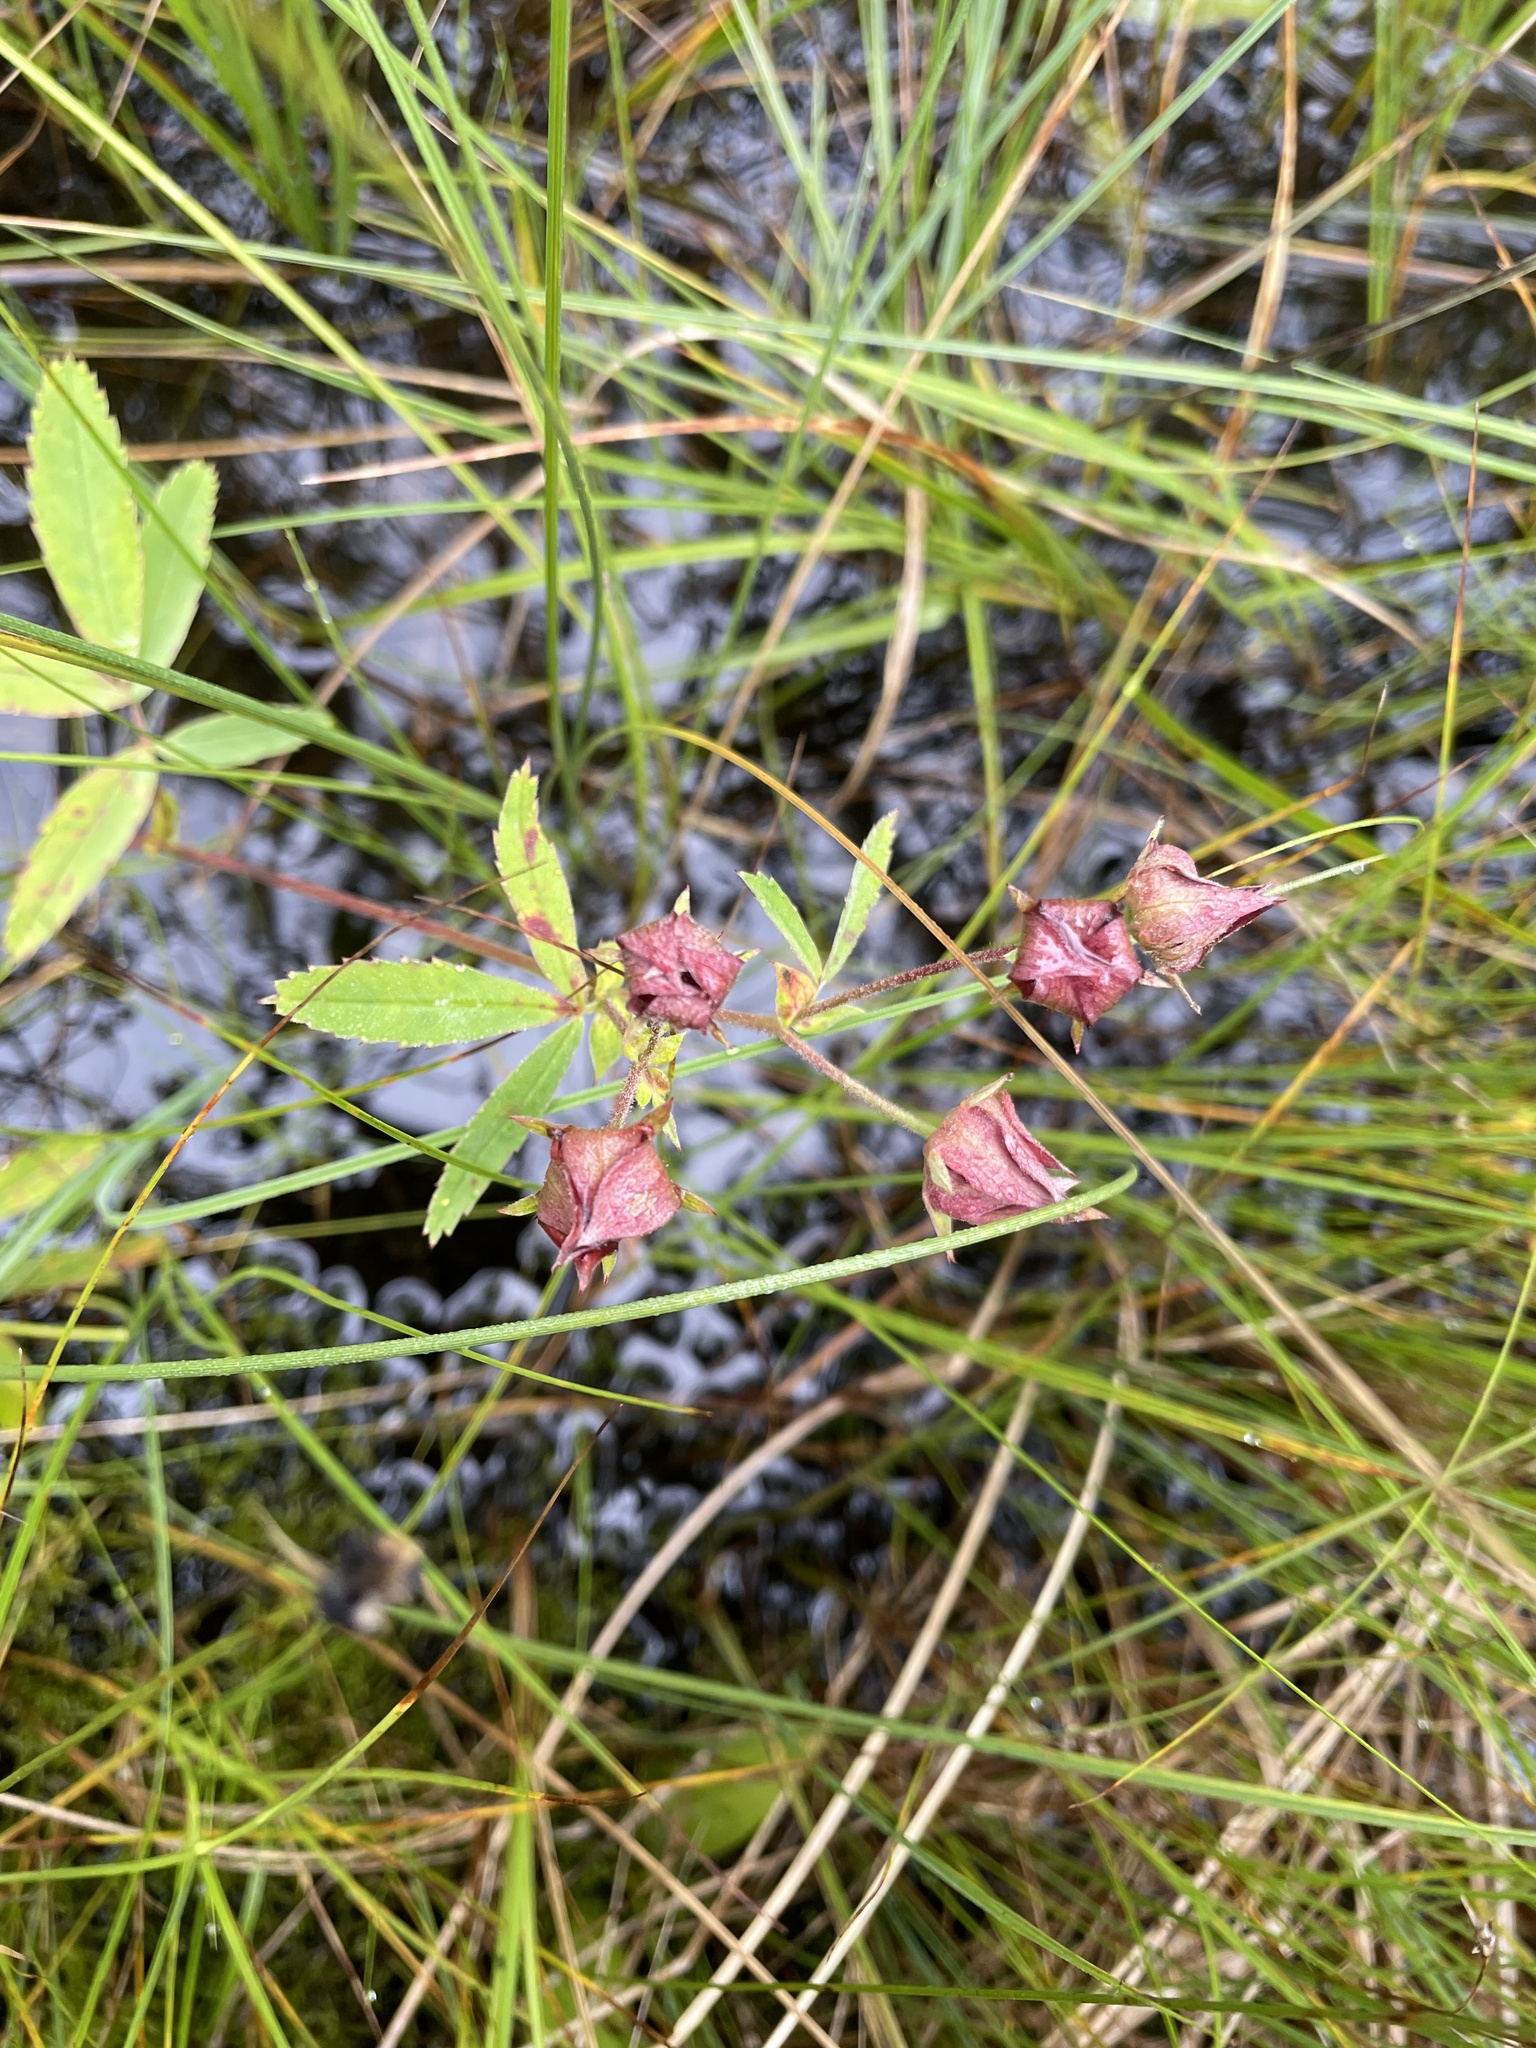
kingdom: Plantae
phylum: Tracheophyta
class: Magnoliopsida
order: Rosales
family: Rosaceae
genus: Comarum
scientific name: Comarum palustre
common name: Marsh cinquefoil
